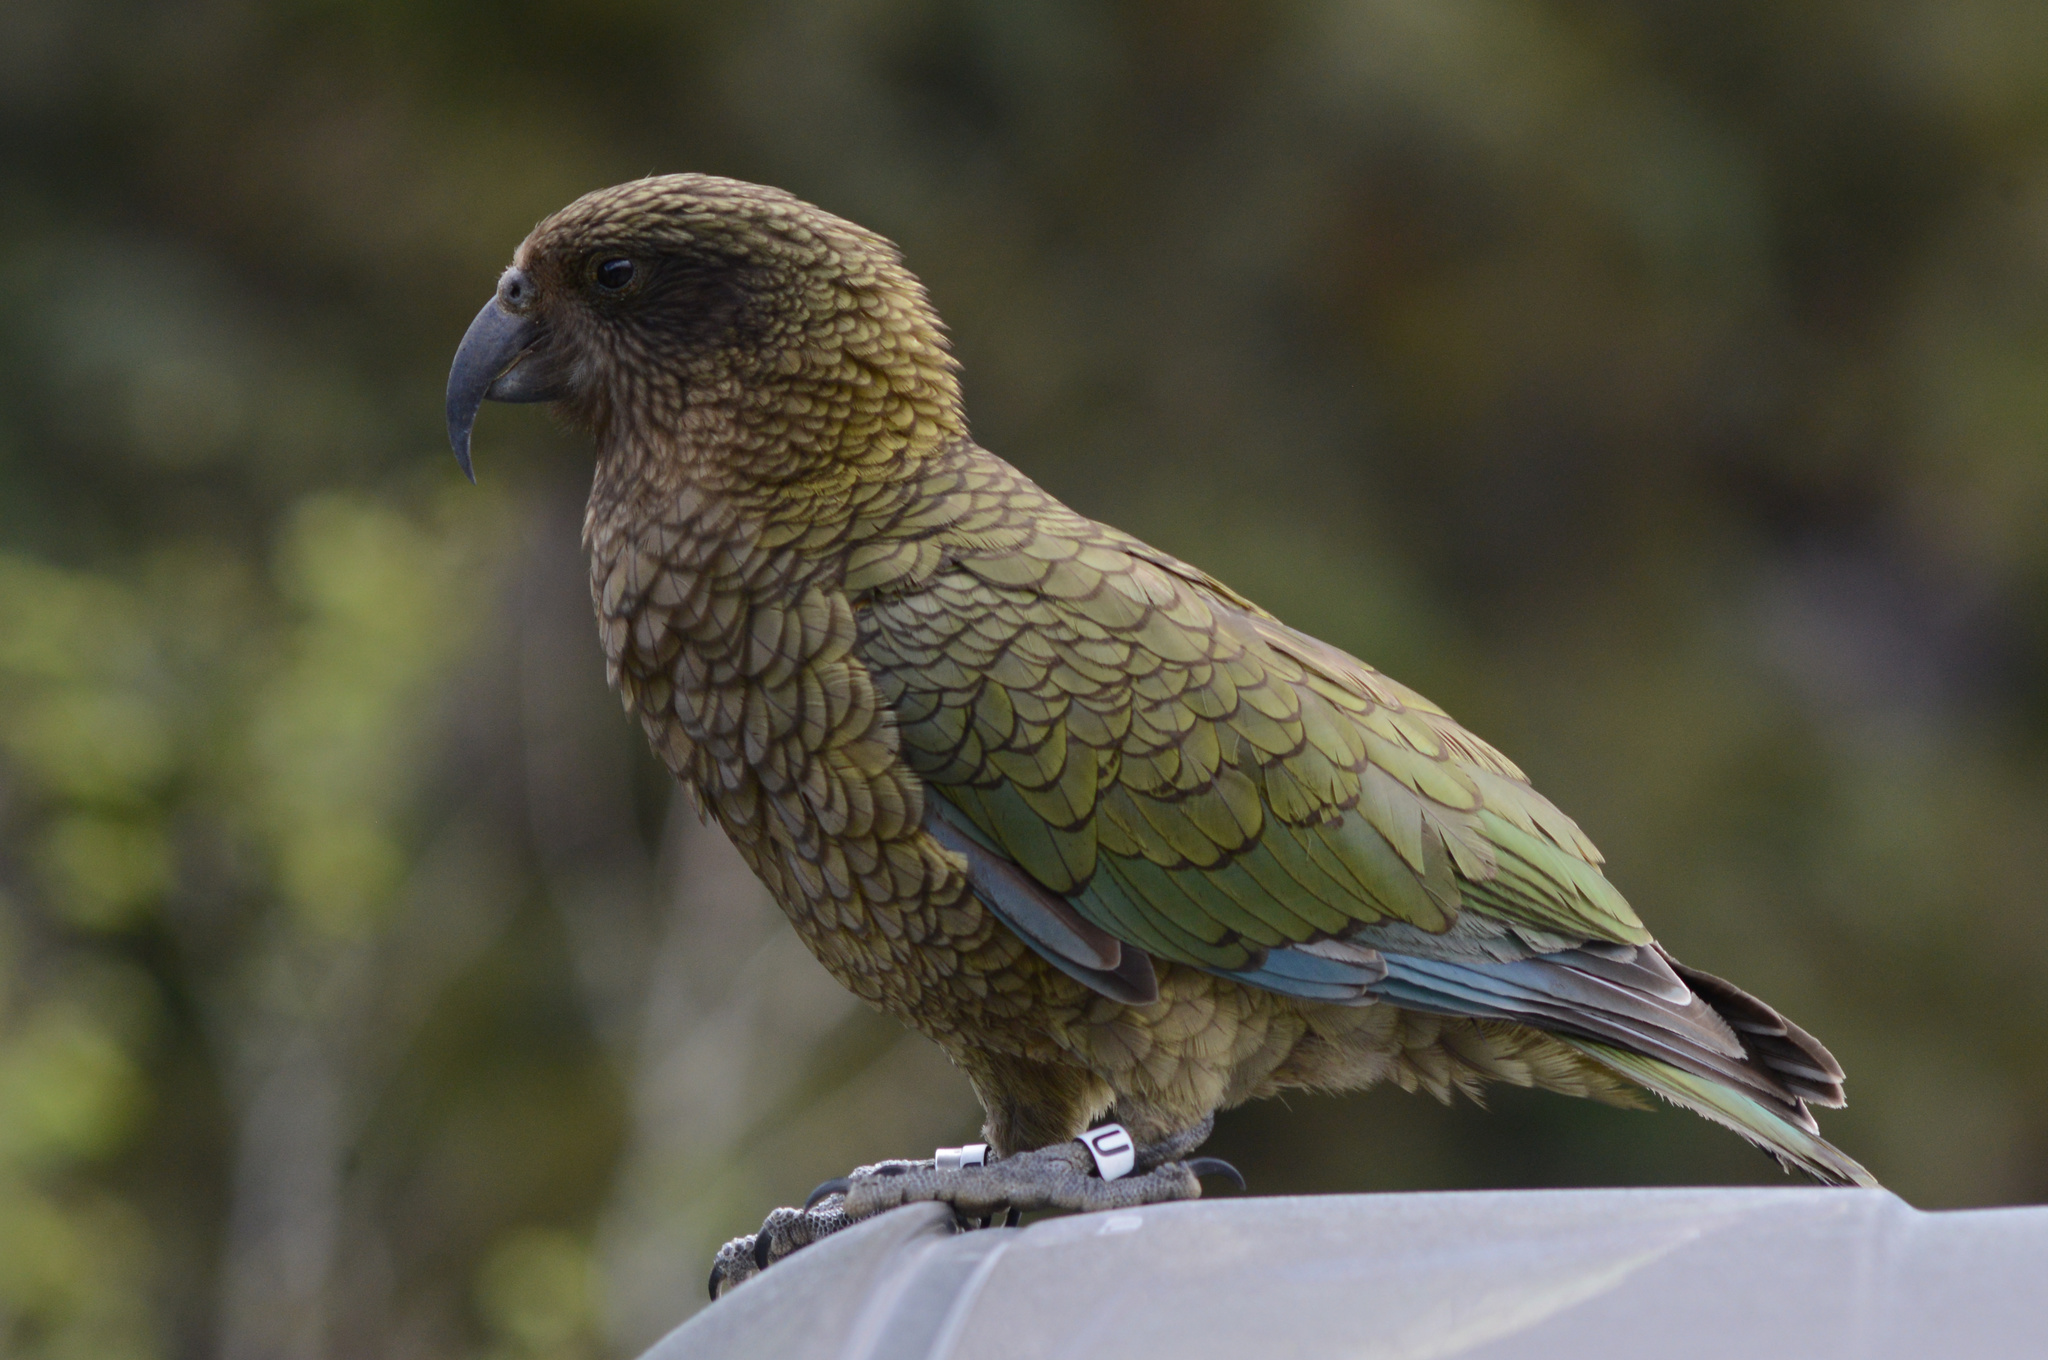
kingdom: Animalia
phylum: Chordata
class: Aves
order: Psittaciformes
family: Psittacidae
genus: Nestor
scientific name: Nestor notabilis
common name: Kea
